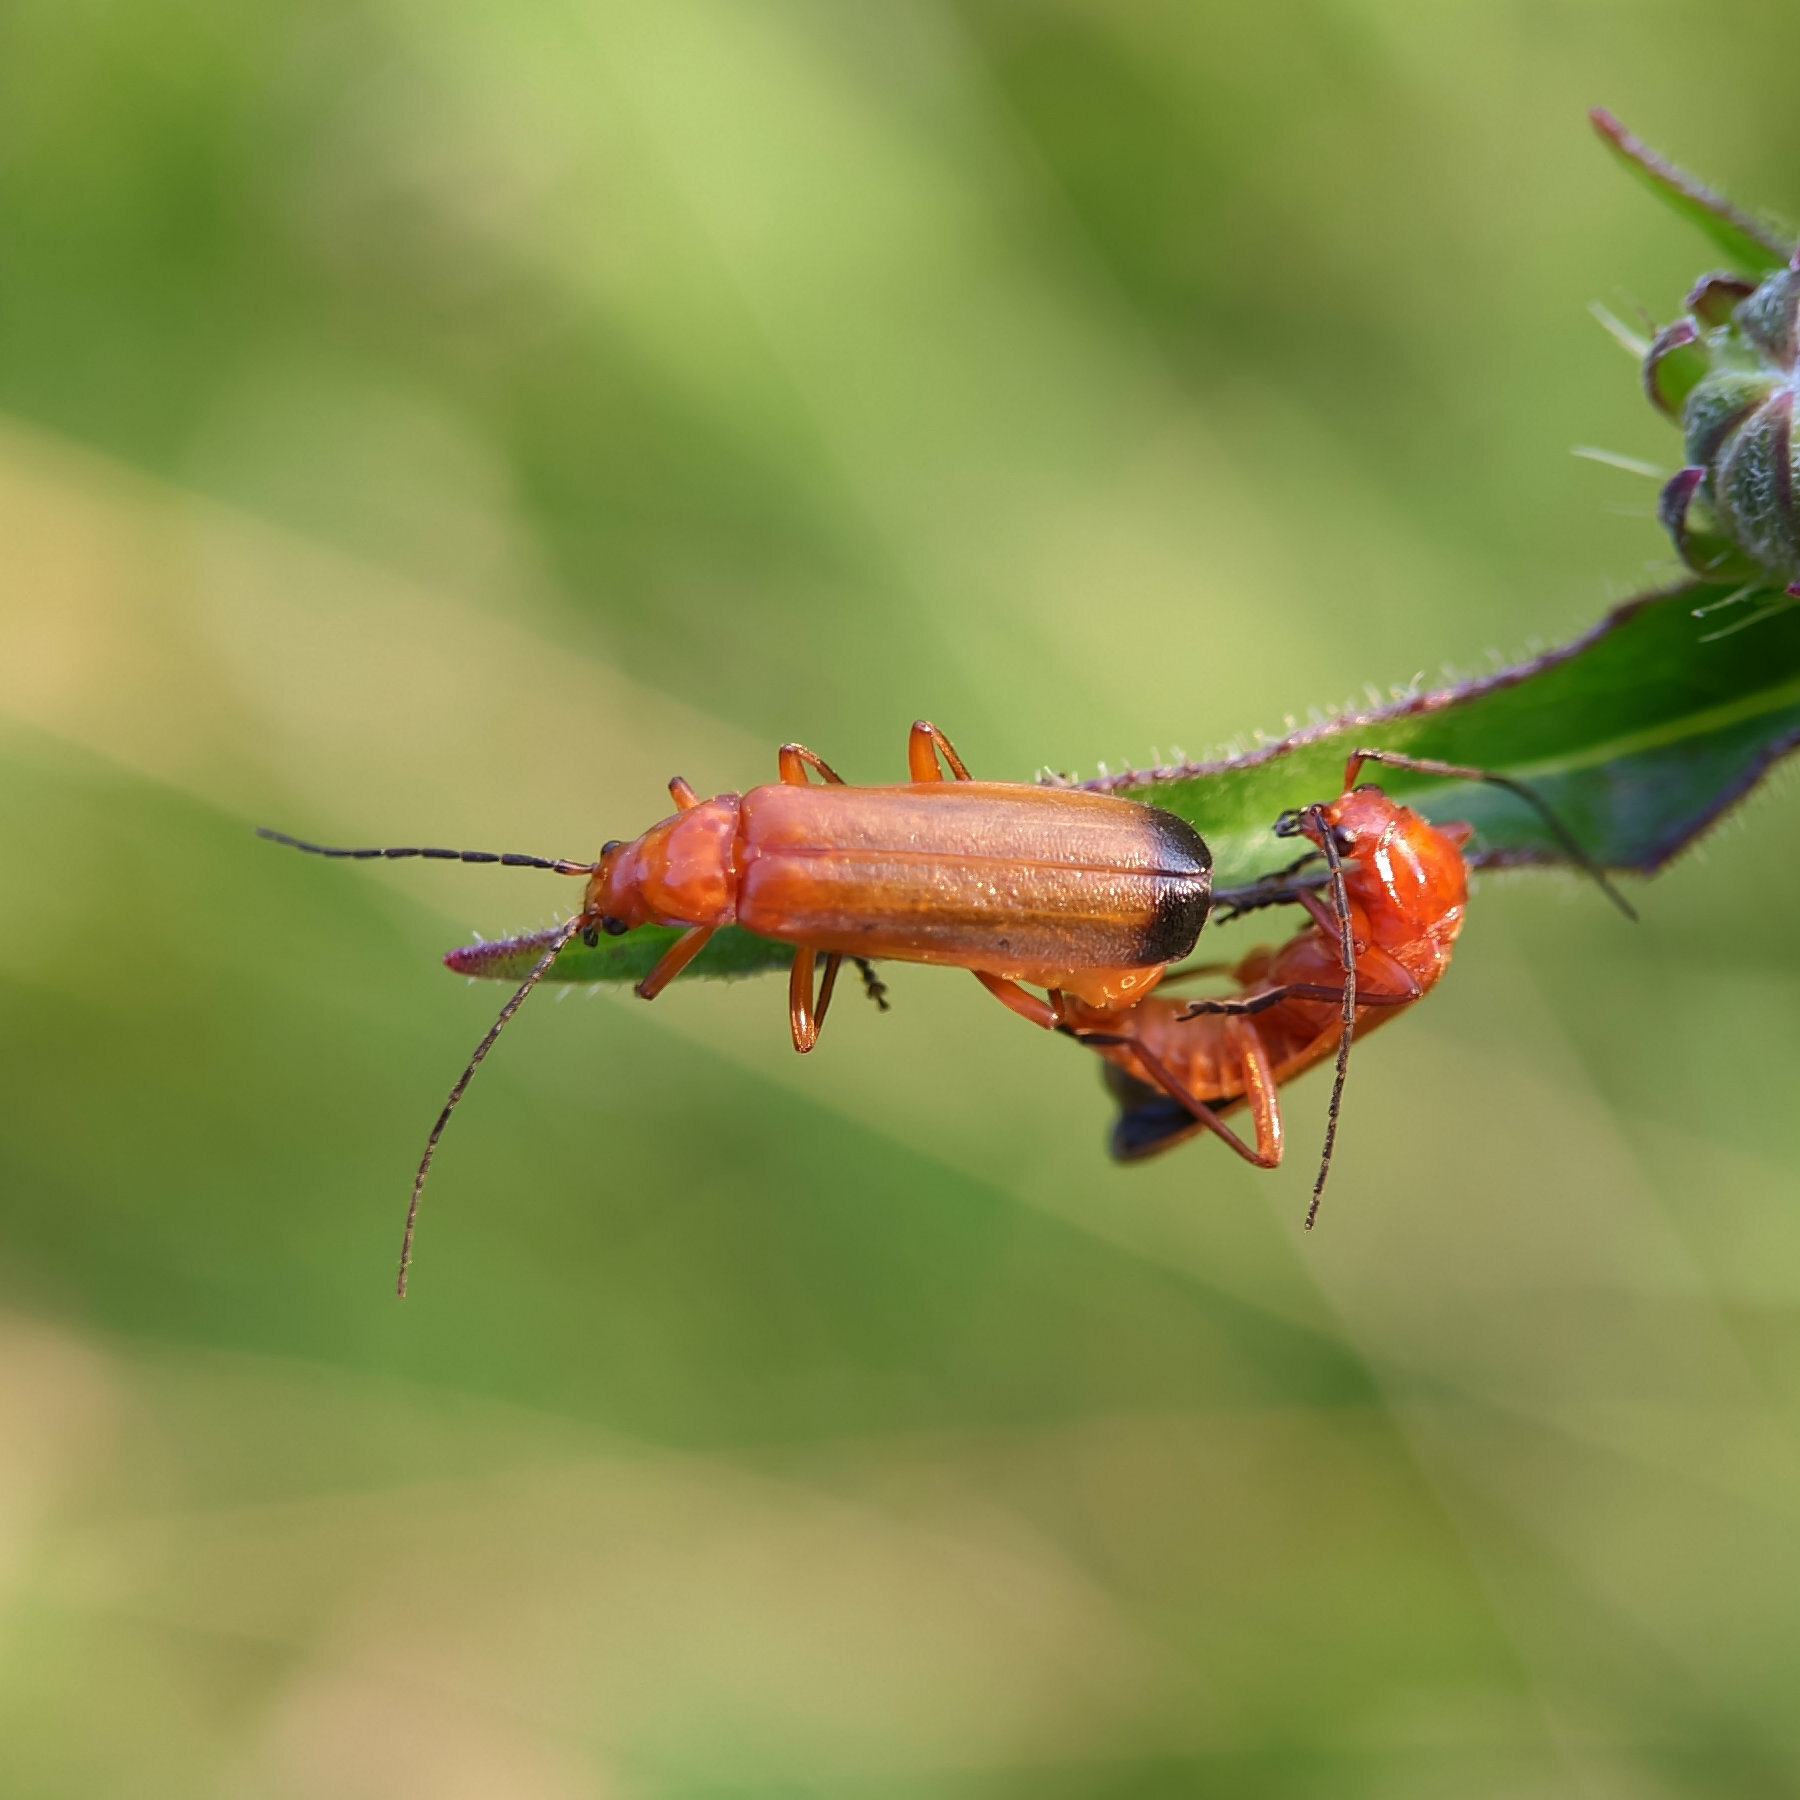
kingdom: Animalia
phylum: Arthropoda
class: Insecta
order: Coleoptera
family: Cantharidae
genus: Rhagonycha
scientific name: Rhagonycha fulva
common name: Common red soldier beetle
